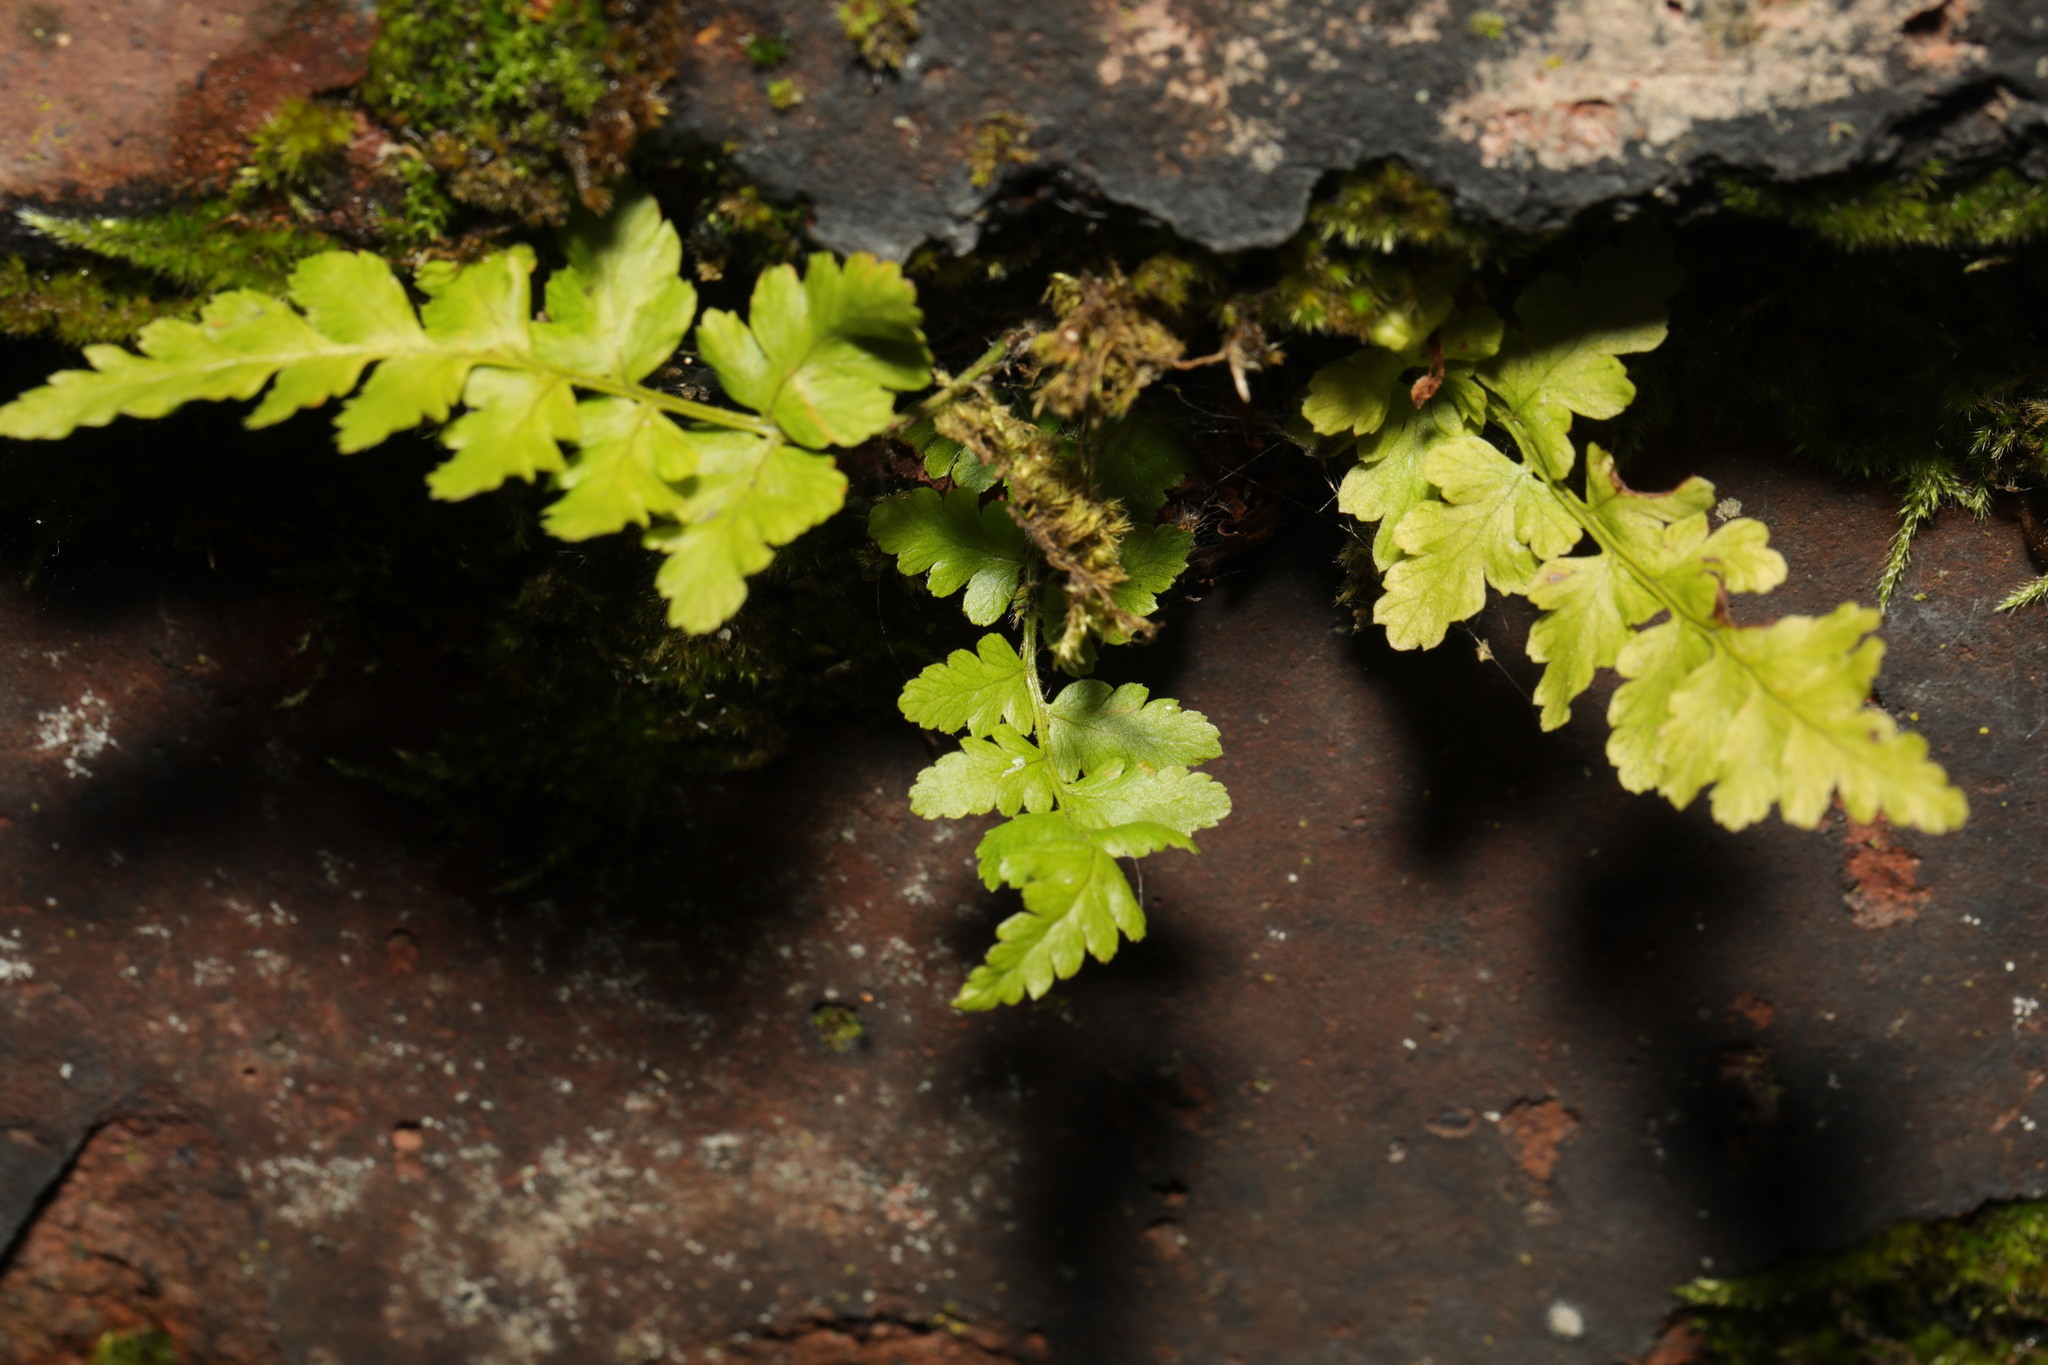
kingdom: Plantae
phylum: Tracheophyta
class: Polypodiopsida
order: Polypodiales
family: Aspleniaceae
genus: Asplenium
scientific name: Asplenium adiantum-nigrum
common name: Black spleenwort
